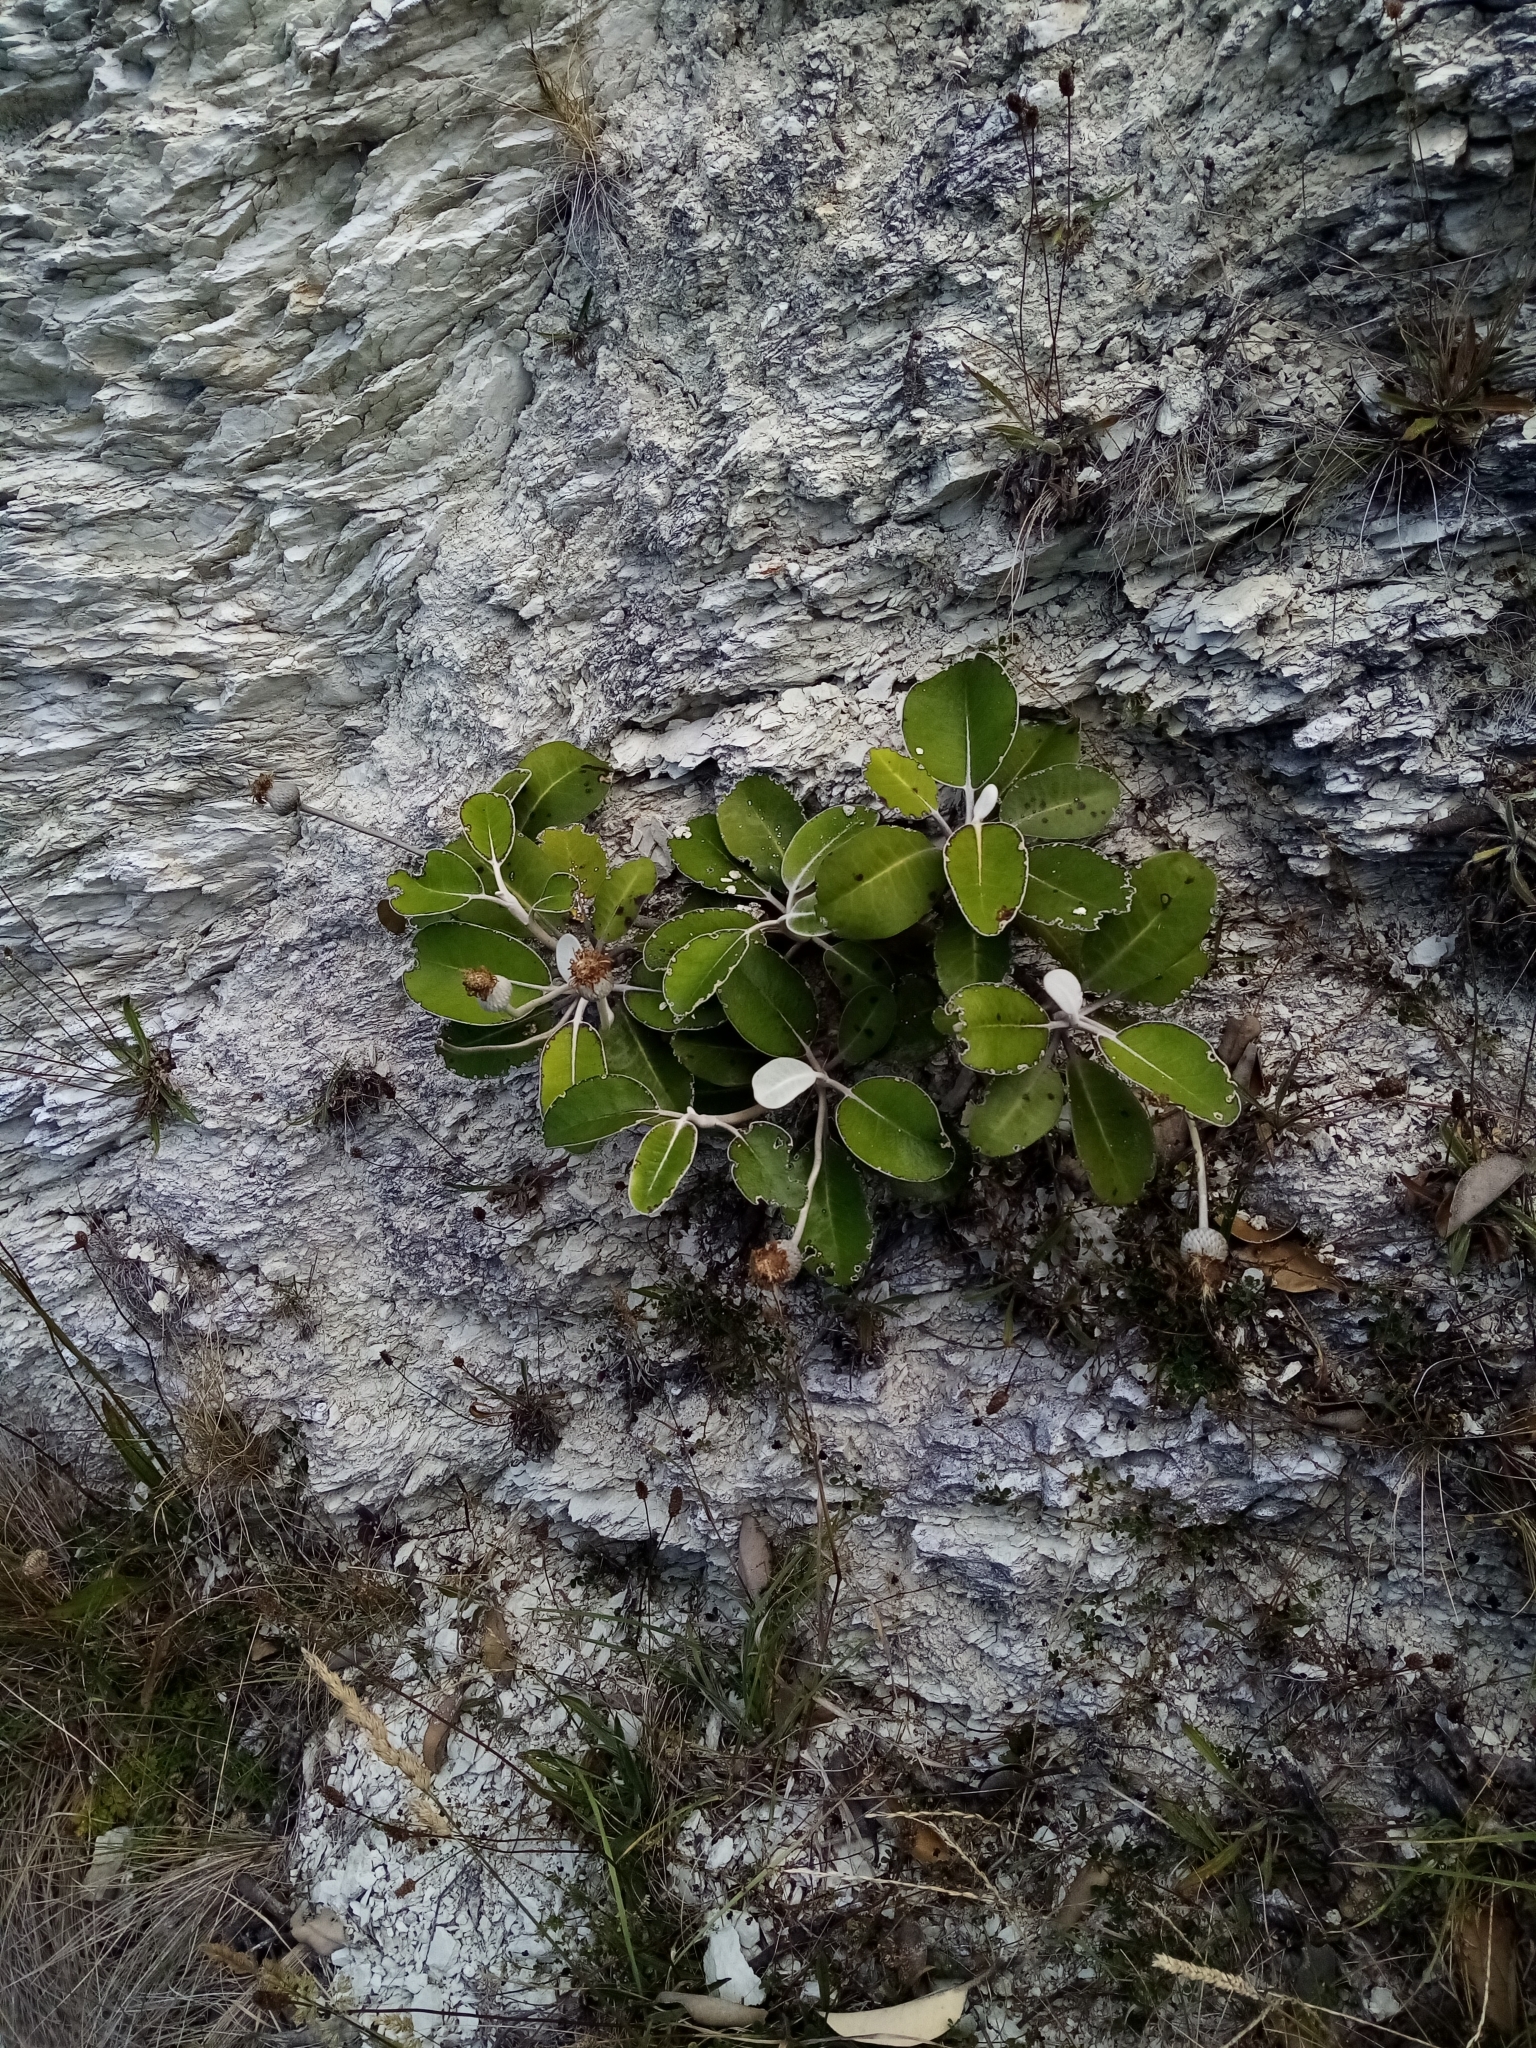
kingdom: Plantae
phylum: Tracheophyta
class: Magnoliopsida
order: Asterales
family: Asteraceae
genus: Pachystegia
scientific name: Pachystegia insignis
